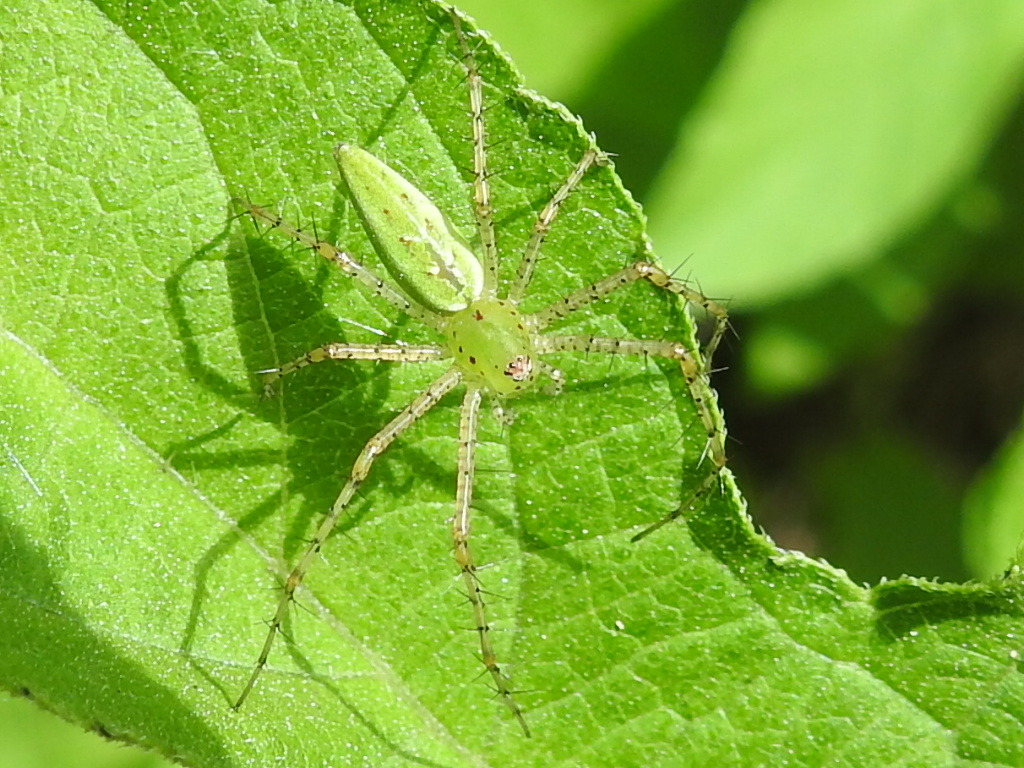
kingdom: Animalia
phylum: Arthropoda
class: Arachnida
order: Araneae
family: Oxyopidae
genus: Peucetia
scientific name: Peucetia viridans
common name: Lynx spiders
